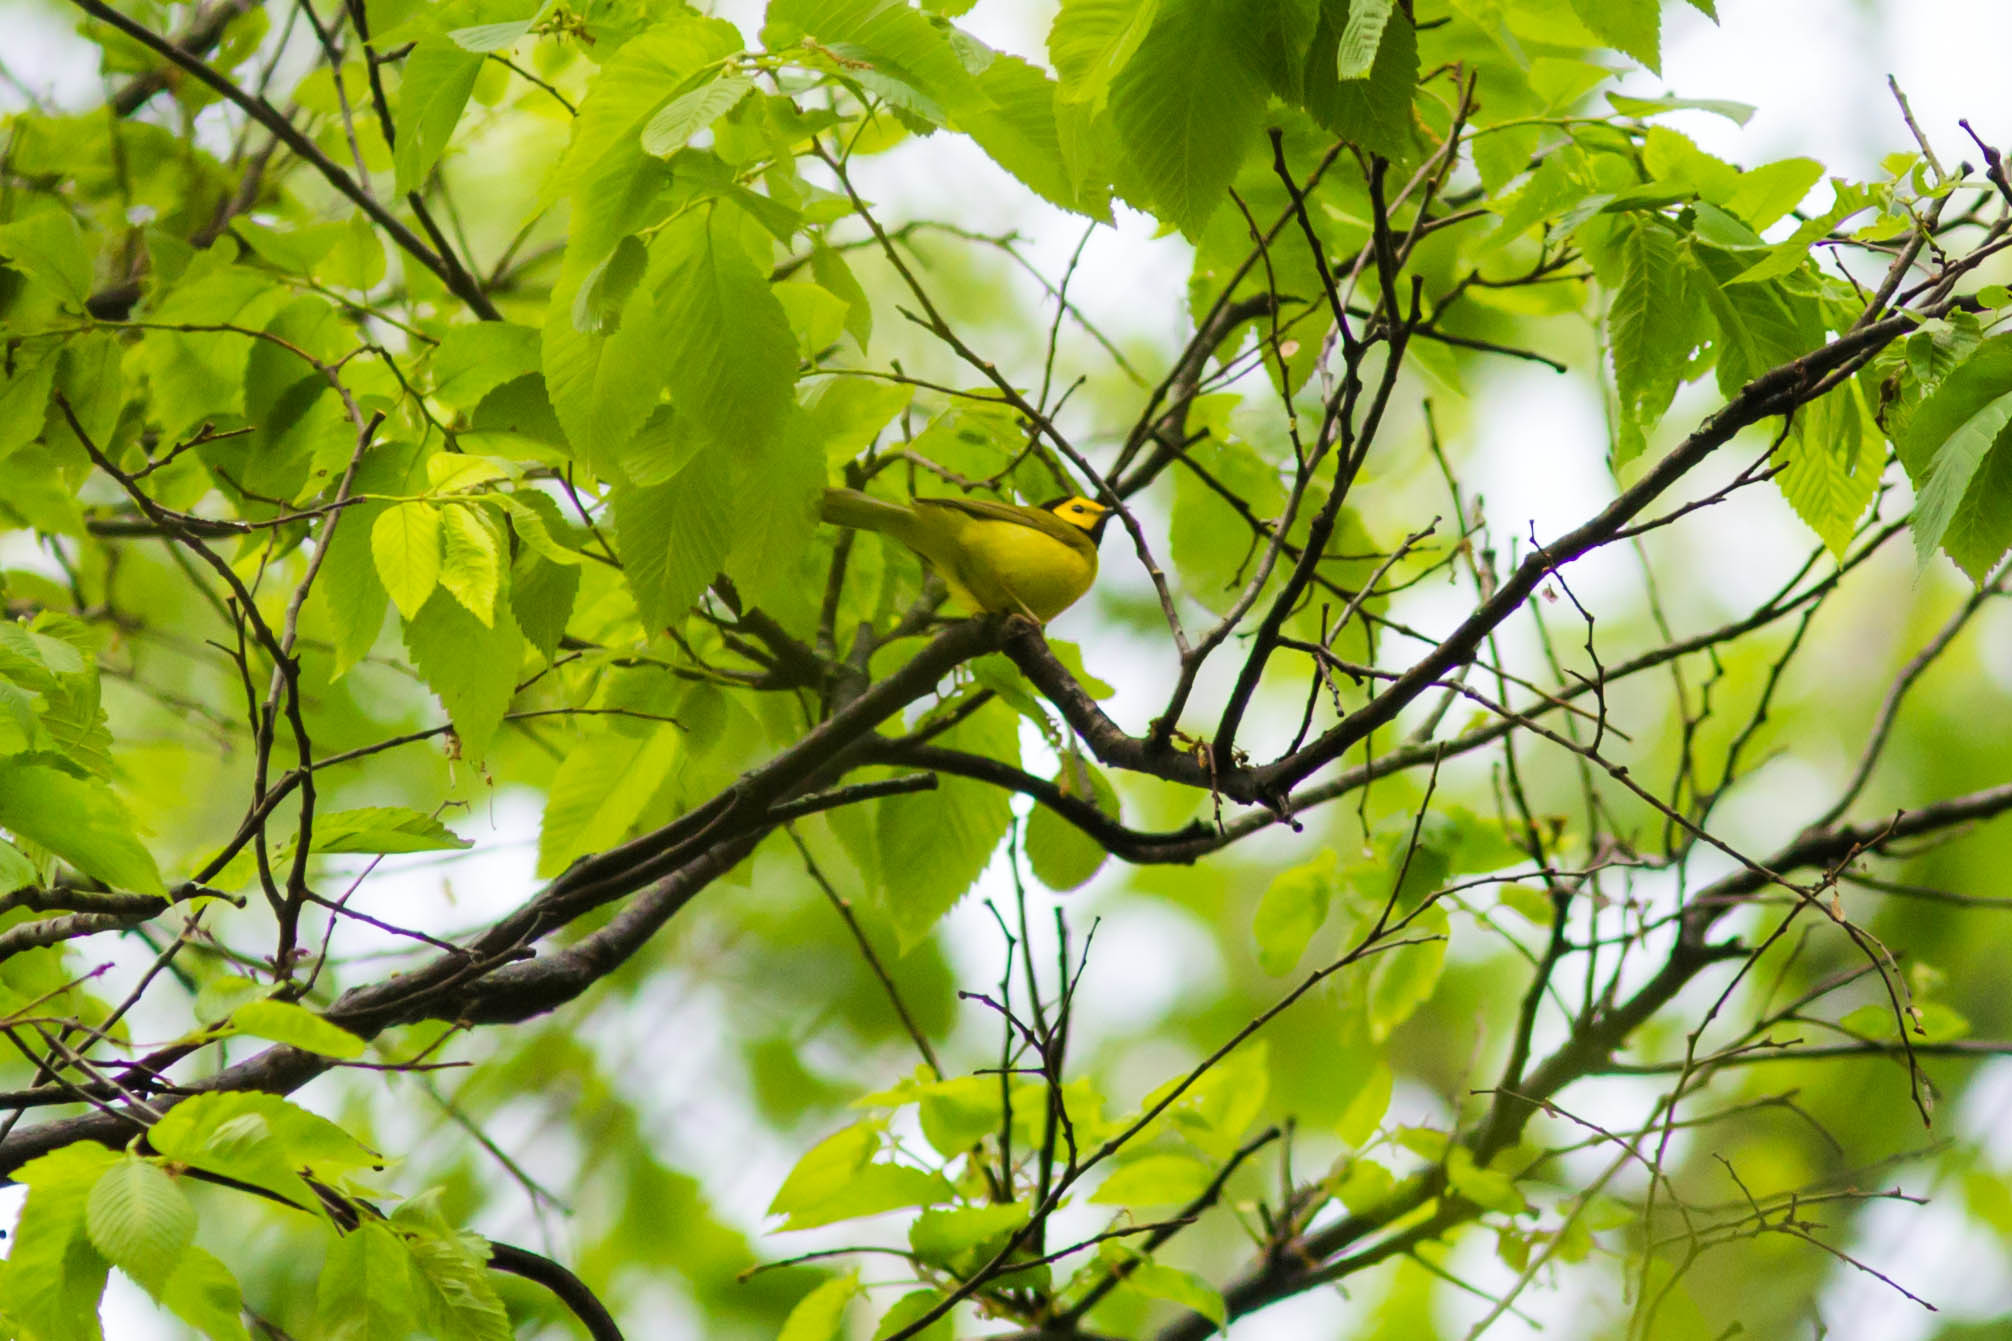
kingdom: Animalia
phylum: Chordata
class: Aves
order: Passeriformes
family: Parulidae
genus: Setophaga
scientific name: Setophaga citrina
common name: Hooded warbler
